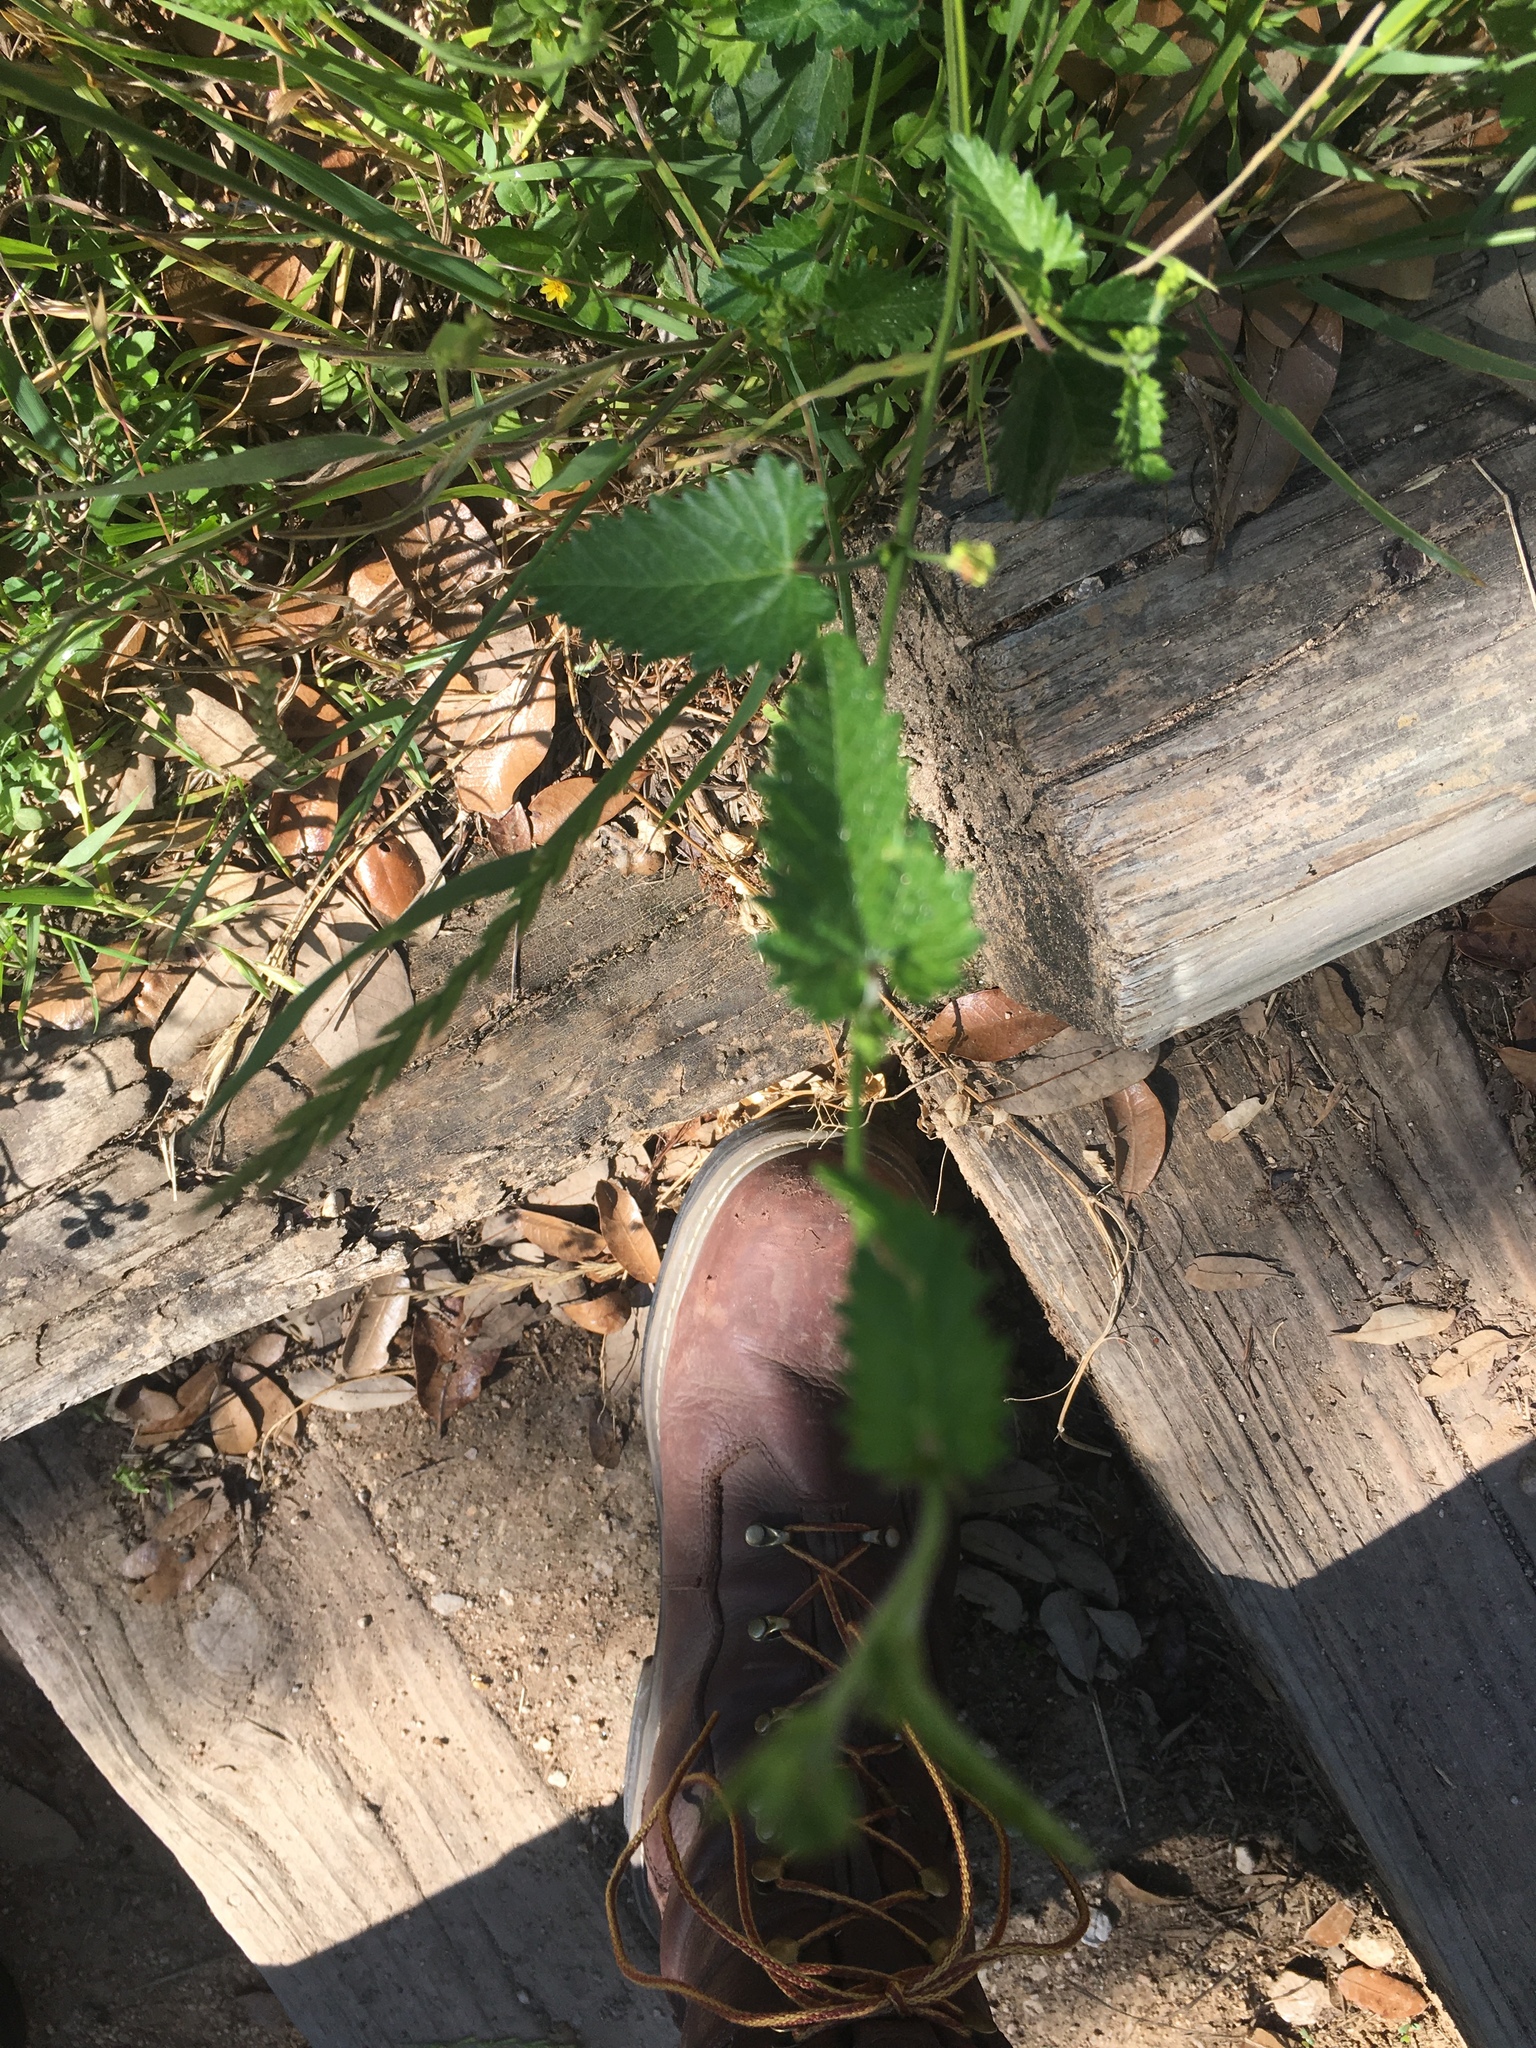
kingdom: Plantae
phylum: Tracheophyta
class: Magnoliopsida
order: Malpighiales
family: Euphorbiaceae
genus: Tragia
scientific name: Tragia betonicifolia
